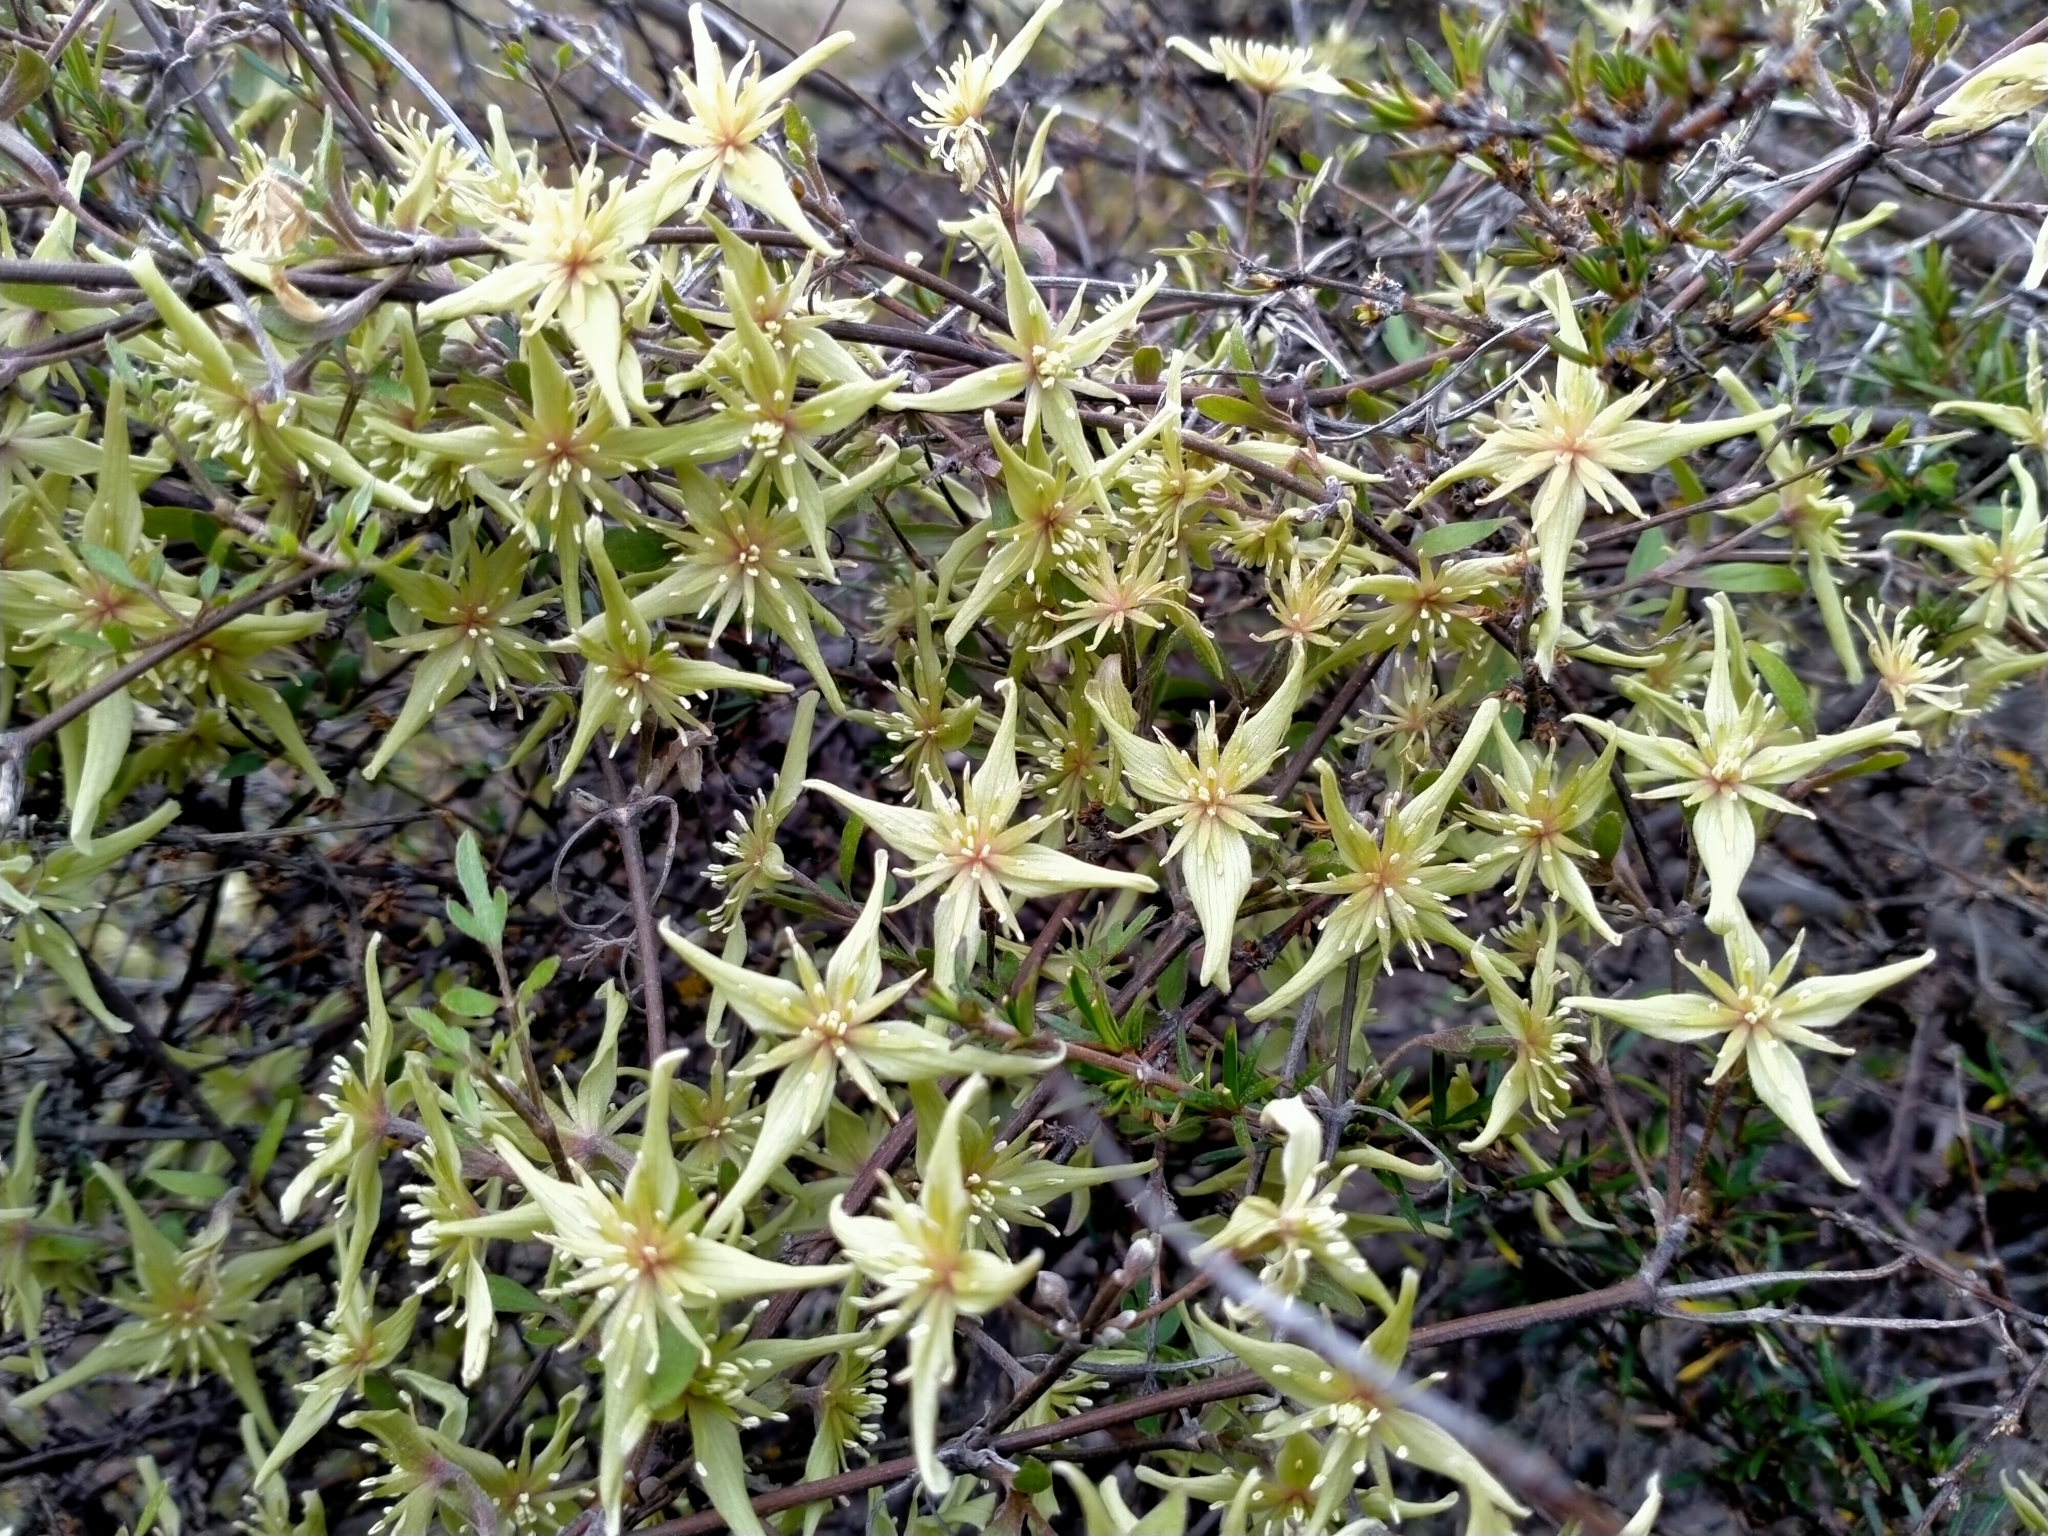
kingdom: Plantae
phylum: Tracheophyta
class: Magnoliopsida
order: Ranunculales
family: Ranunculaceae
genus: Clematis
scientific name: Clematis marata
